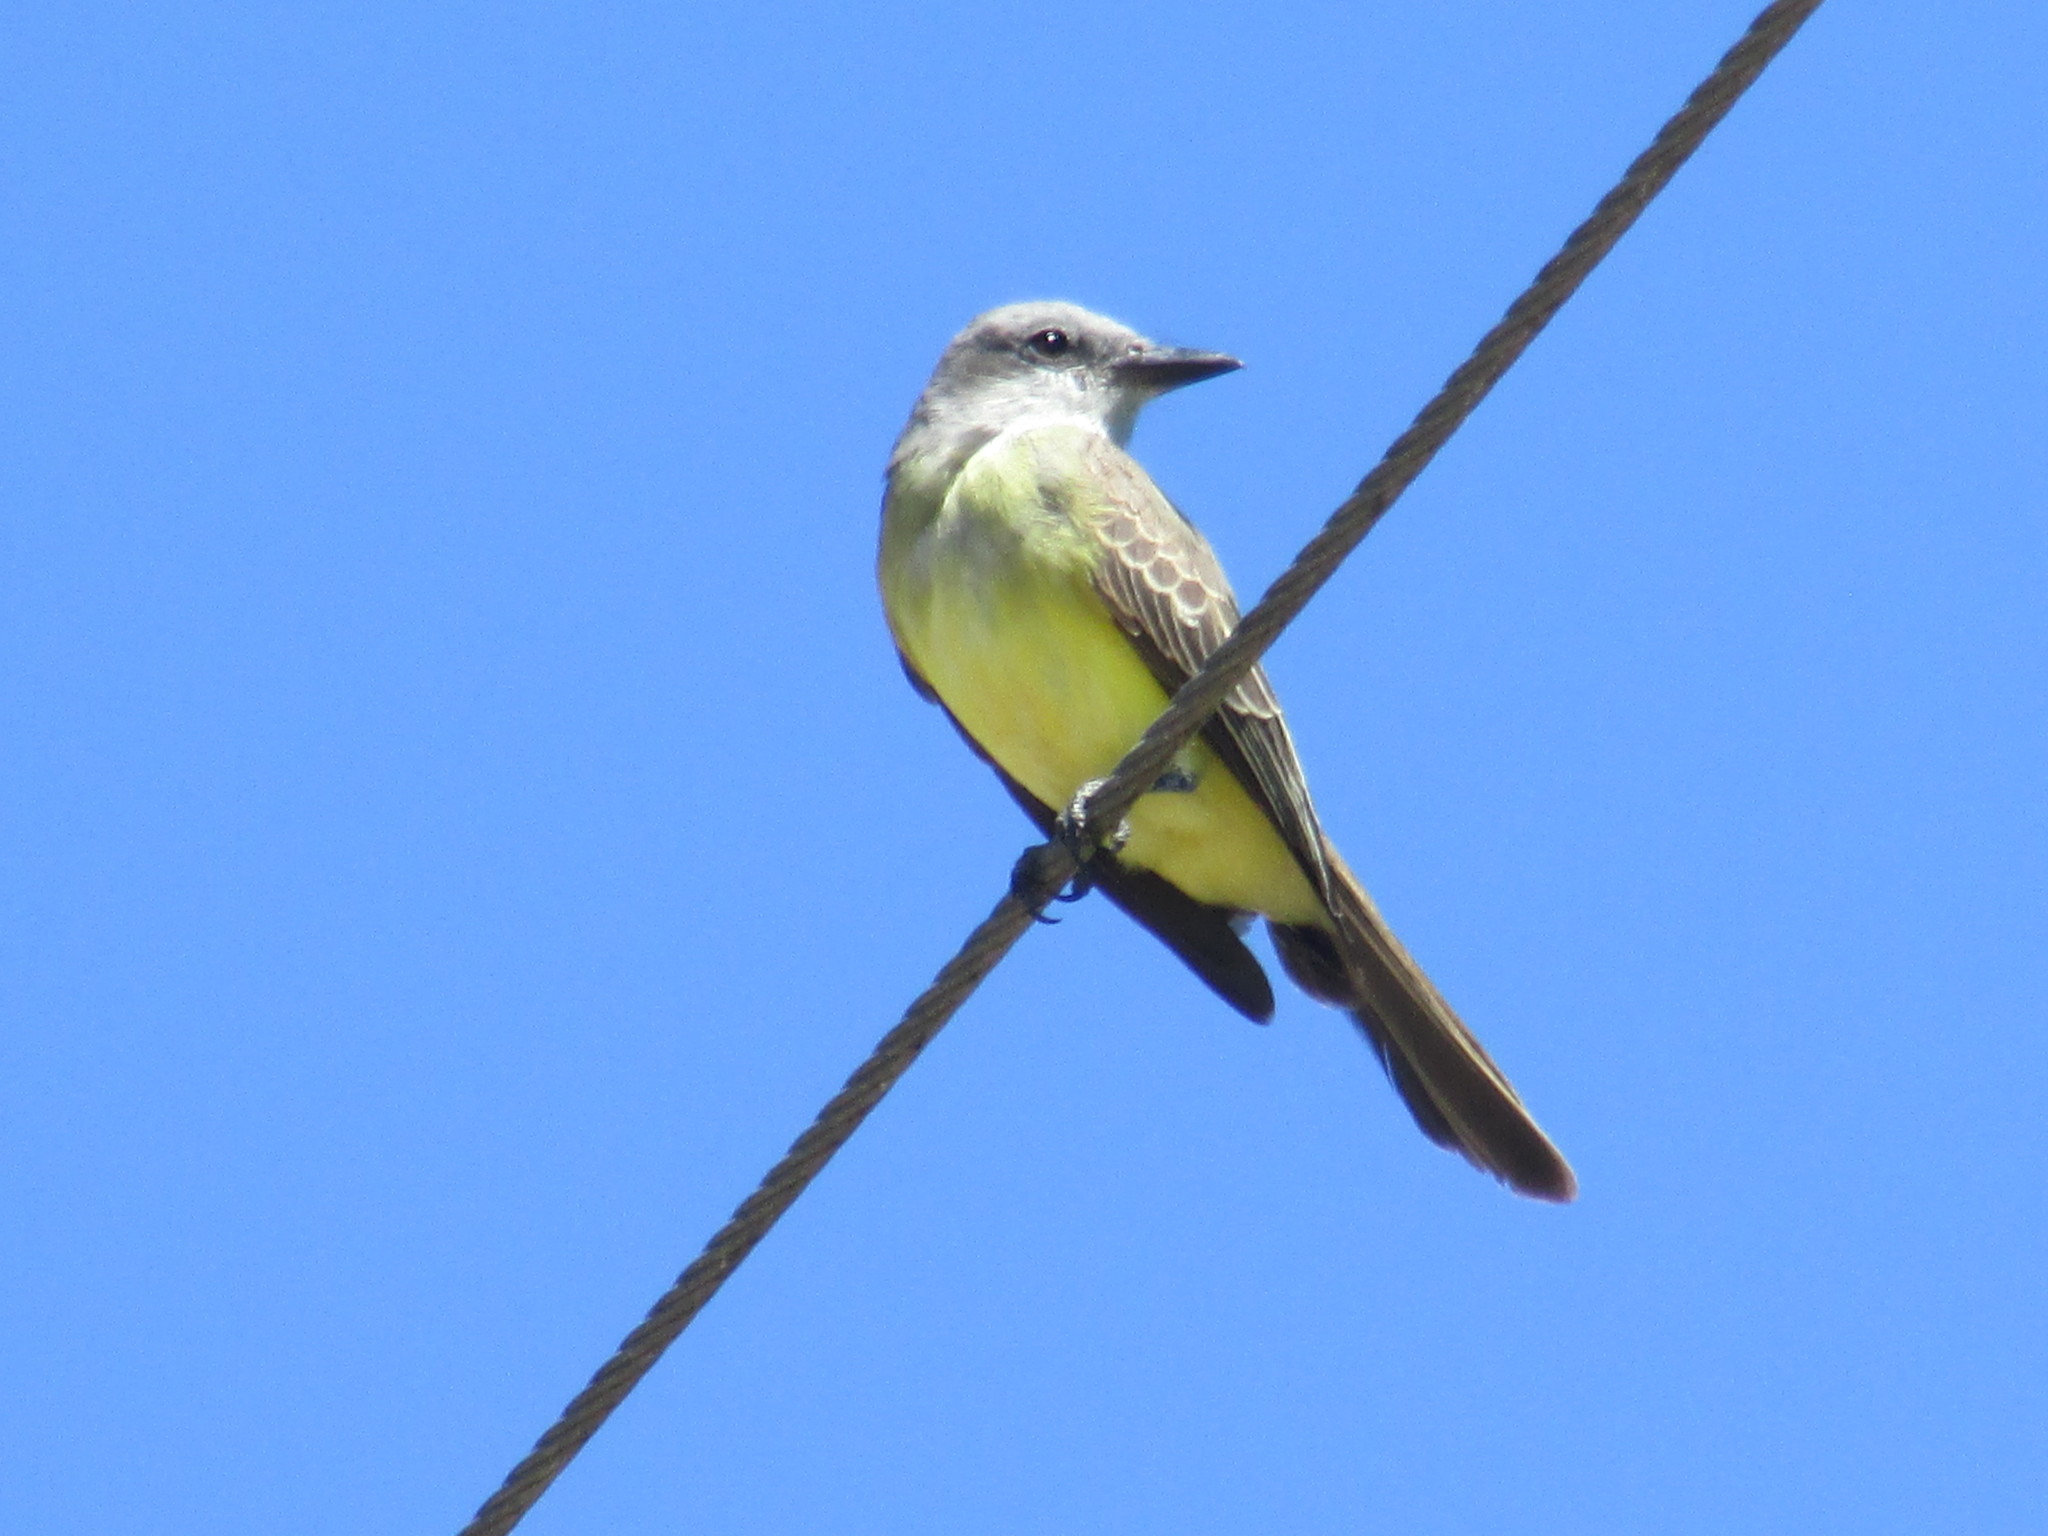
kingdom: Animalia
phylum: Chordata
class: Aves
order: Passeriformes
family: Tyrannidae
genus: Tyrannus
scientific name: Tyrannus melancholicus
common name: Tropical kingbird
